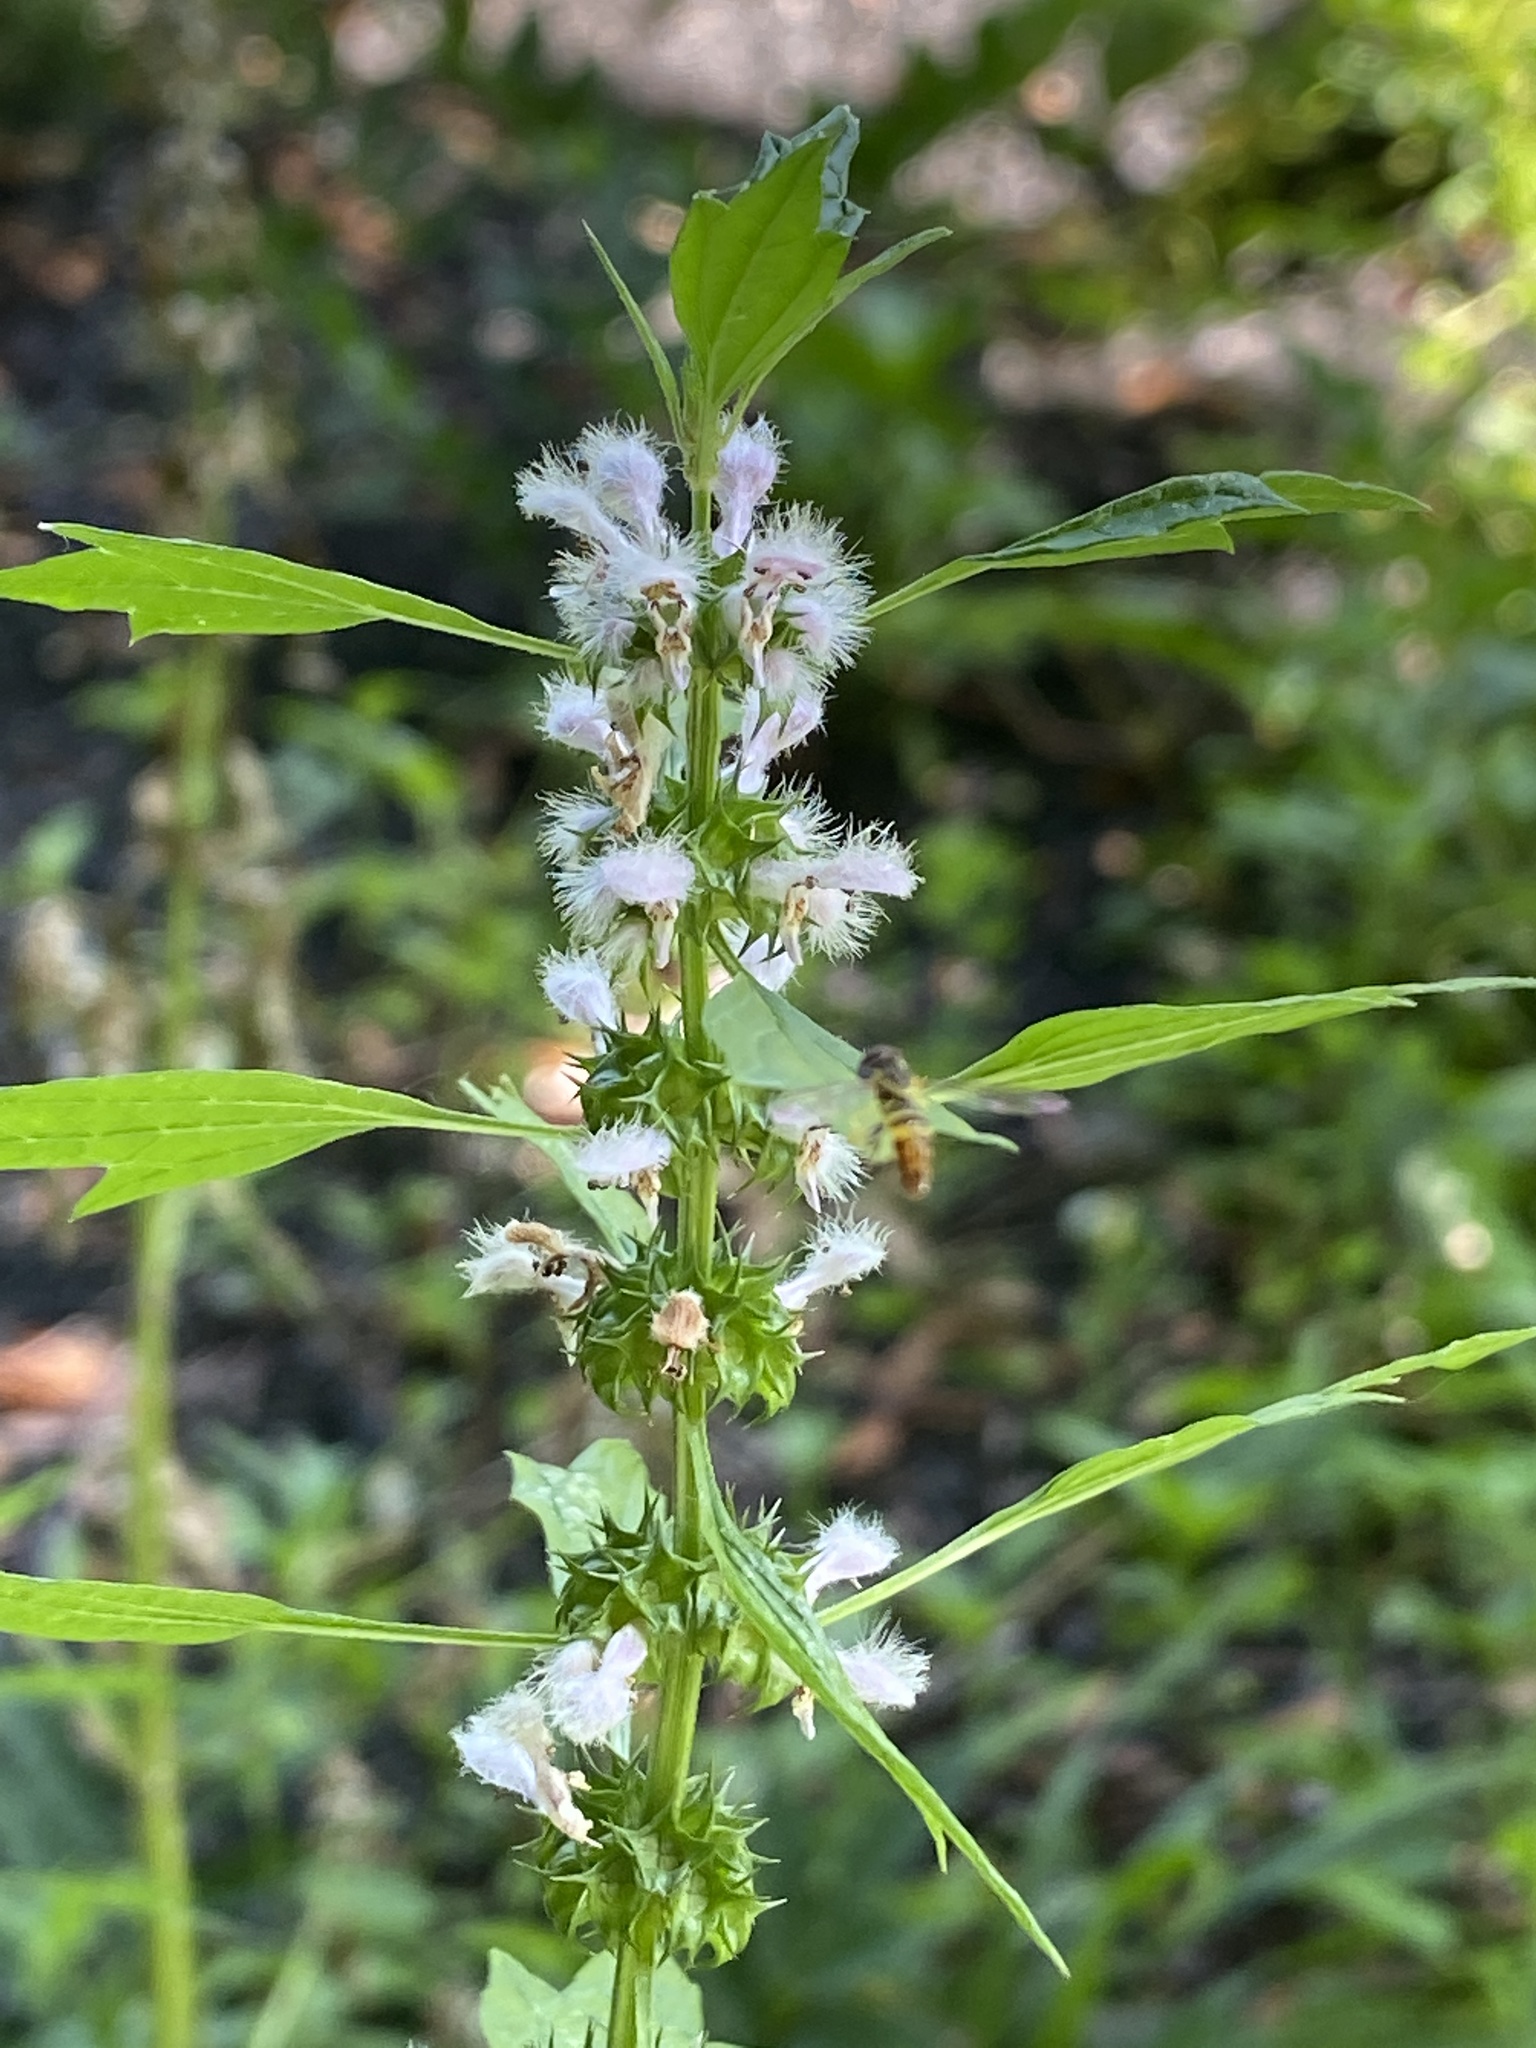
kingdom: Plantae
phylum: Tracheophyta
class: Magnoliopsida
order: Lamiales
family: Lamiaceae
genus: Leonurus
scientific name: Leonurus cardiaca
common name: Motherwort
